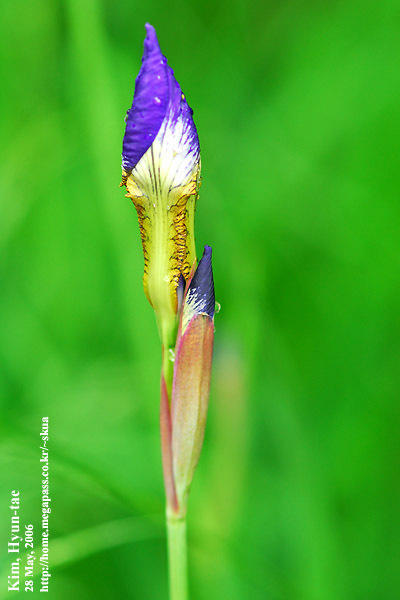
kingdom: Plantae
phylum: Tracheophyta
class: Liliopsida
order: Asparagales
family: Iridaceae
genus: Iris
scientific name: Iris sanguinea
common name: Blood iris
